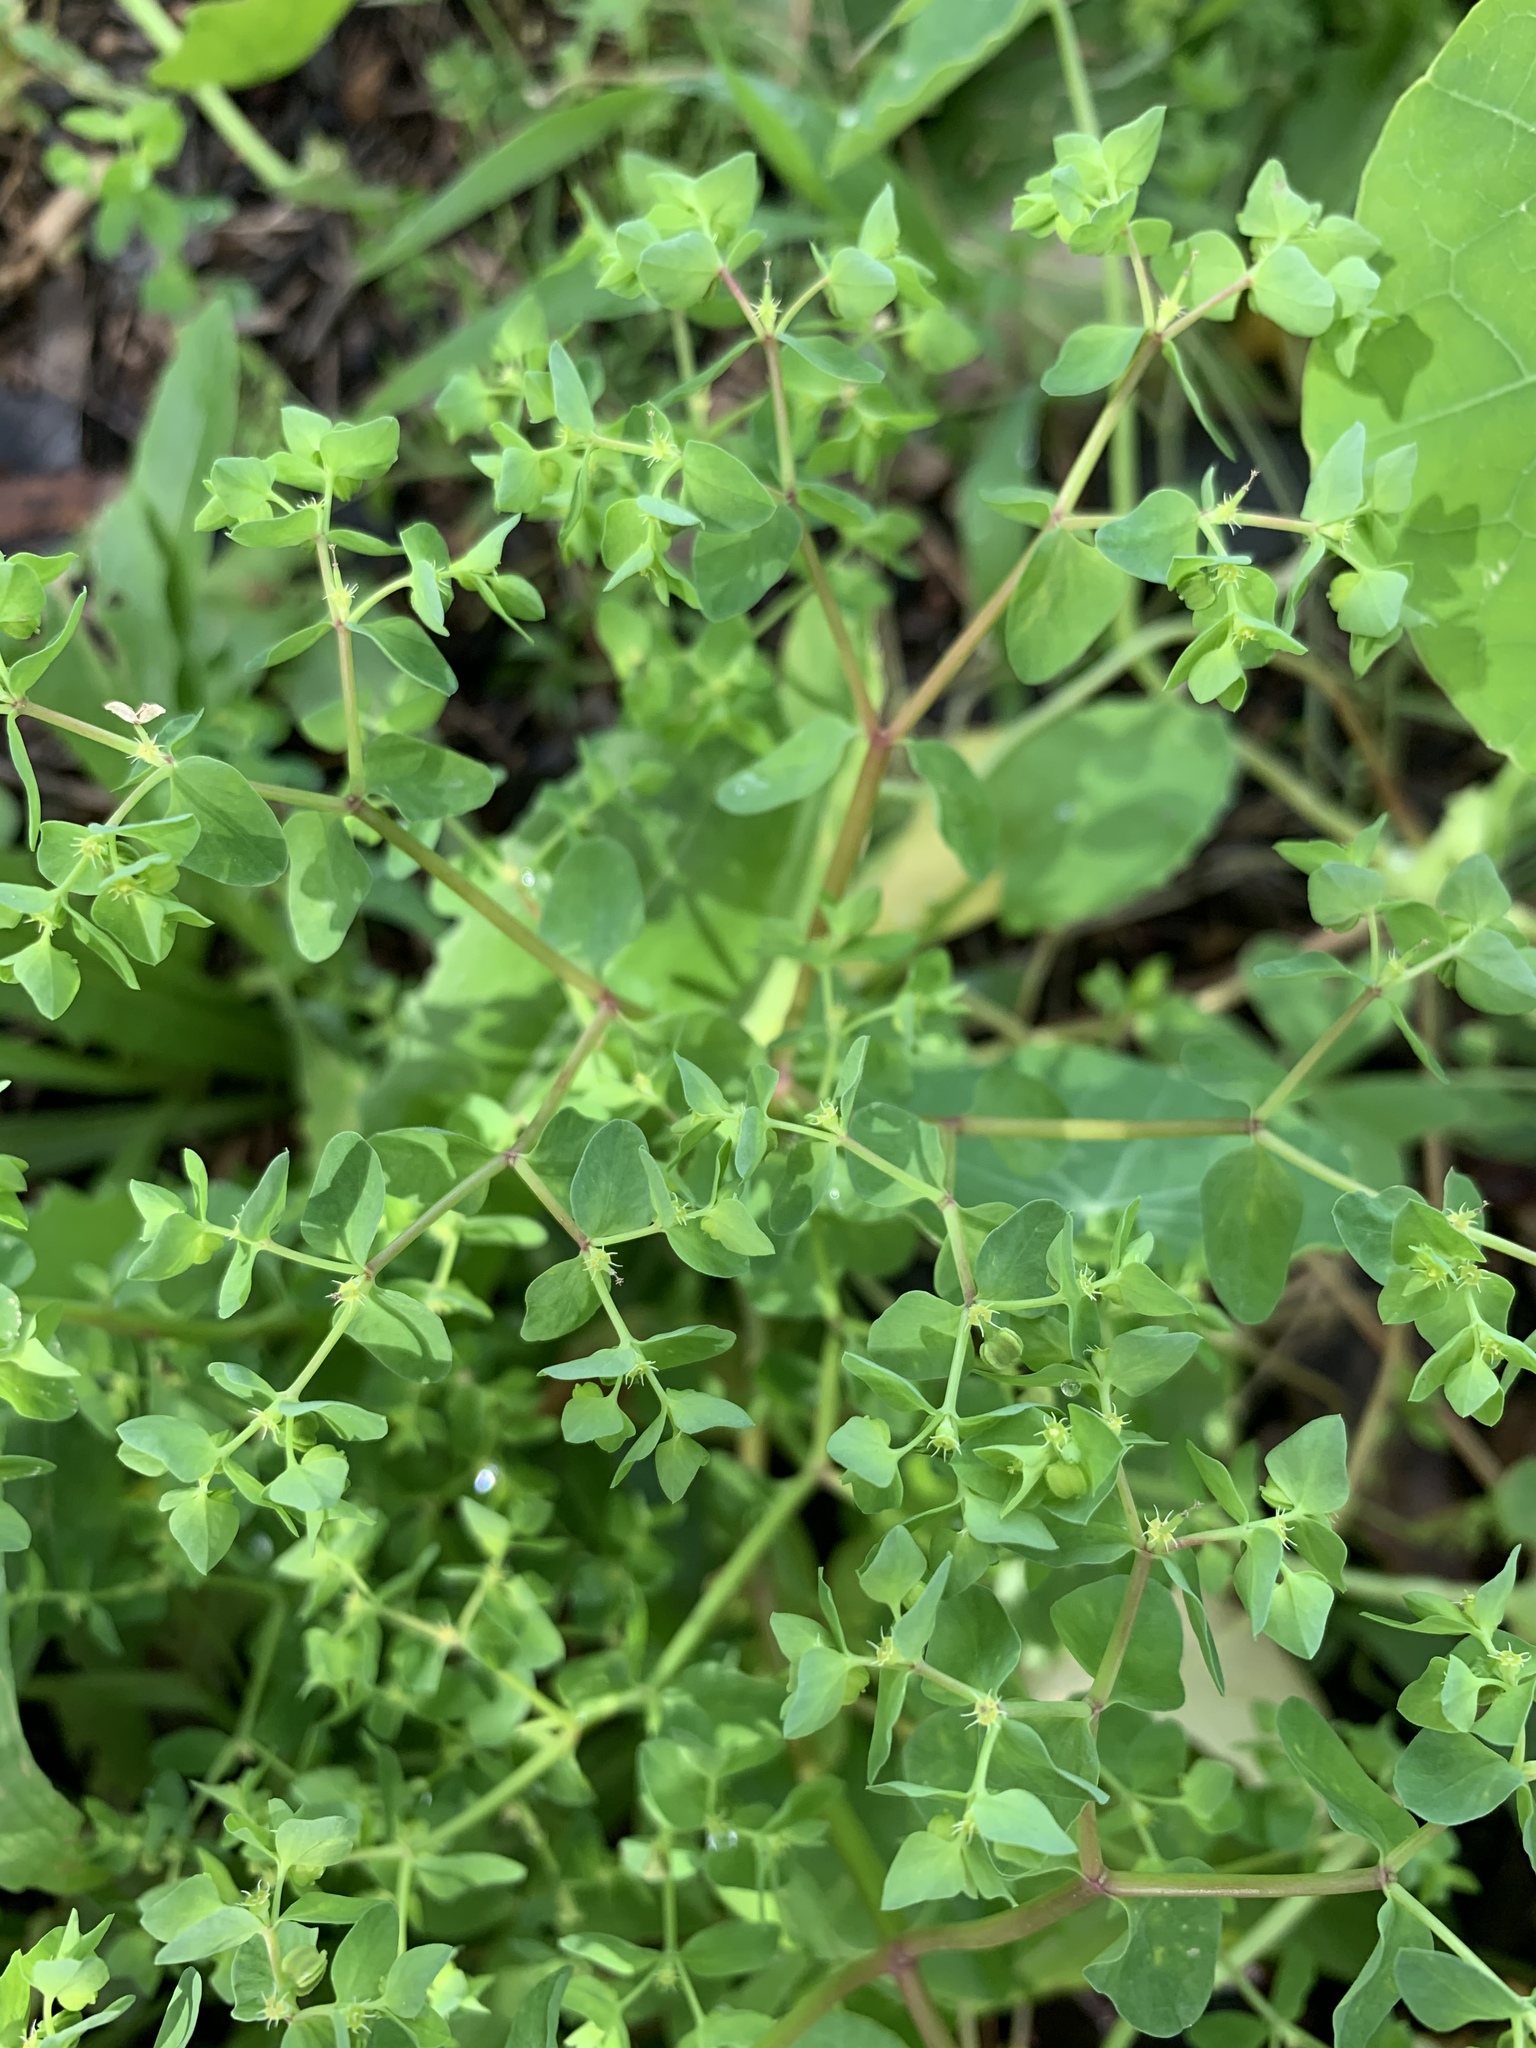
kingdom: Plantae
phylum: Tracheophyta
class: Magnoliopsida
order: Malpighiales
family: Euphorbiaceae
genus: Euphorbia
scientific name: Euphorbia peplus
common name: Petty spurge
